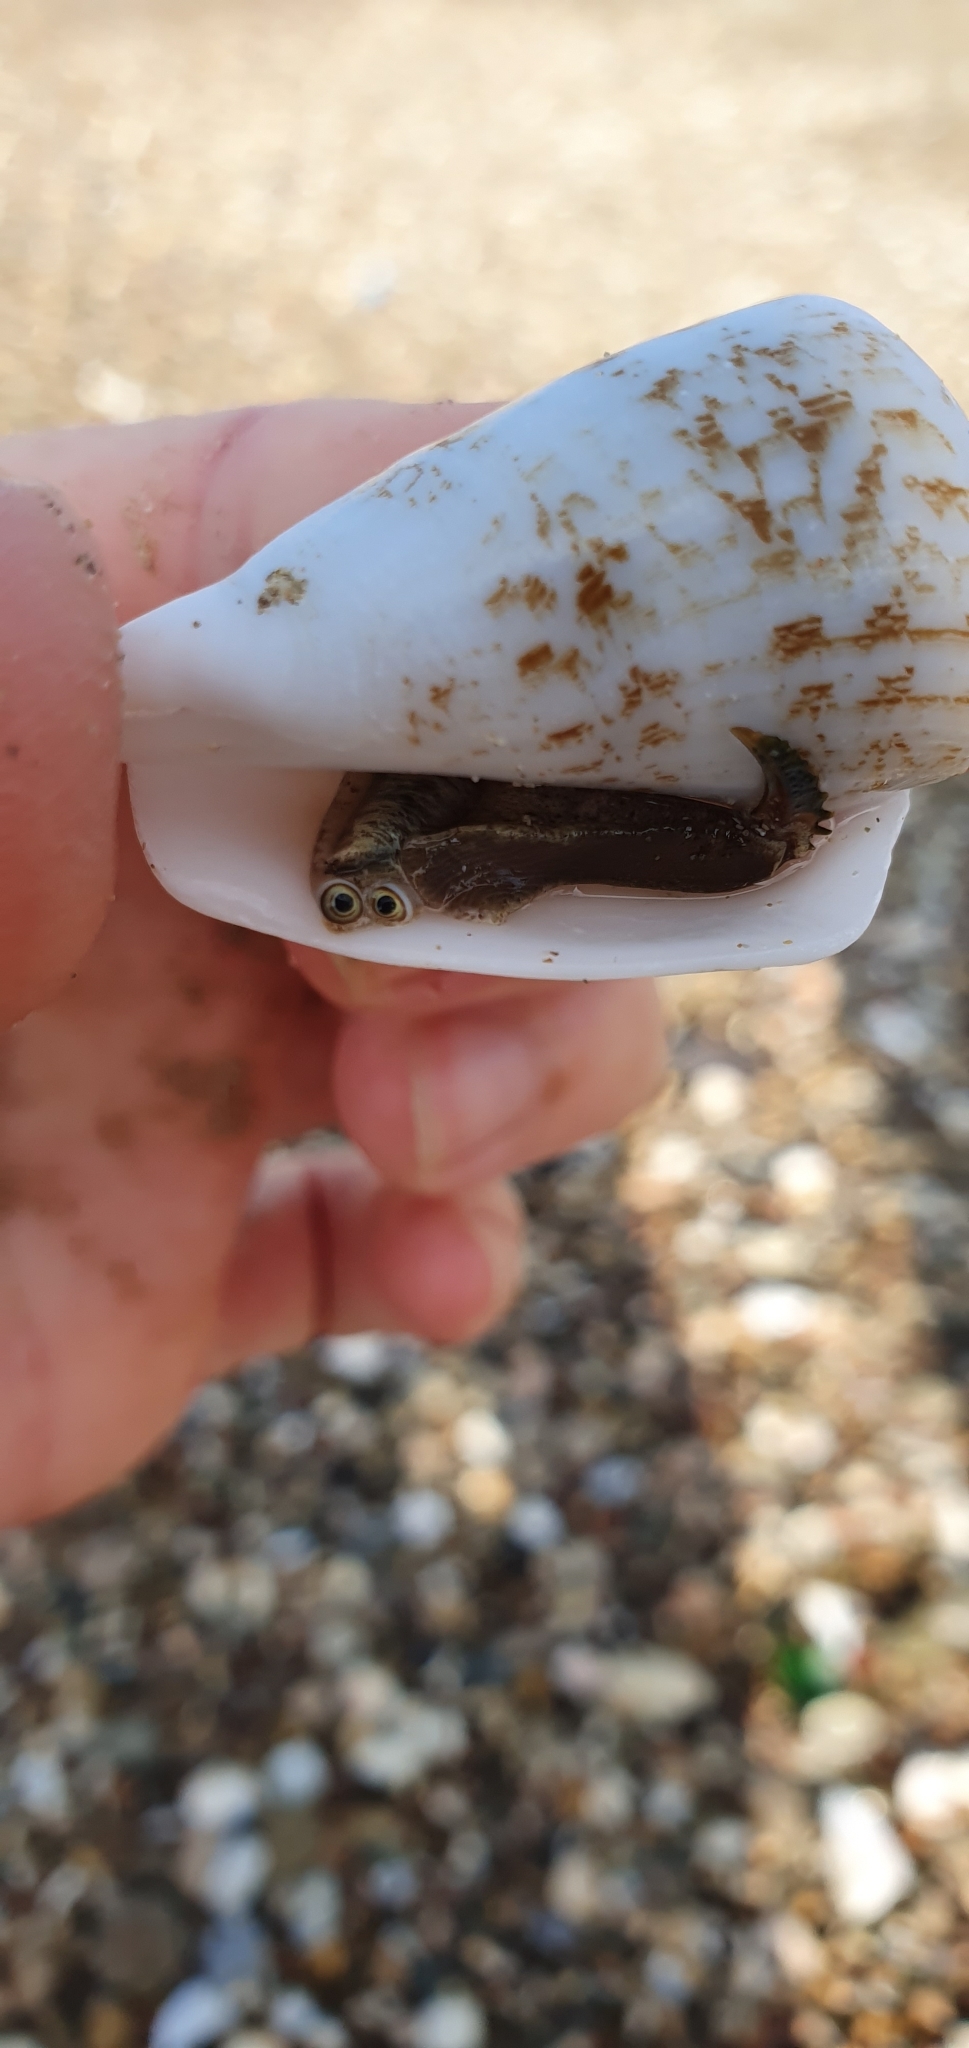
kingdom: Animalia
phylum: Mollusca
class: Gastropoda
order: Littorinimorpha
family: Strombidae
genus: Conomurex
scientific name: Conomurex persicus
